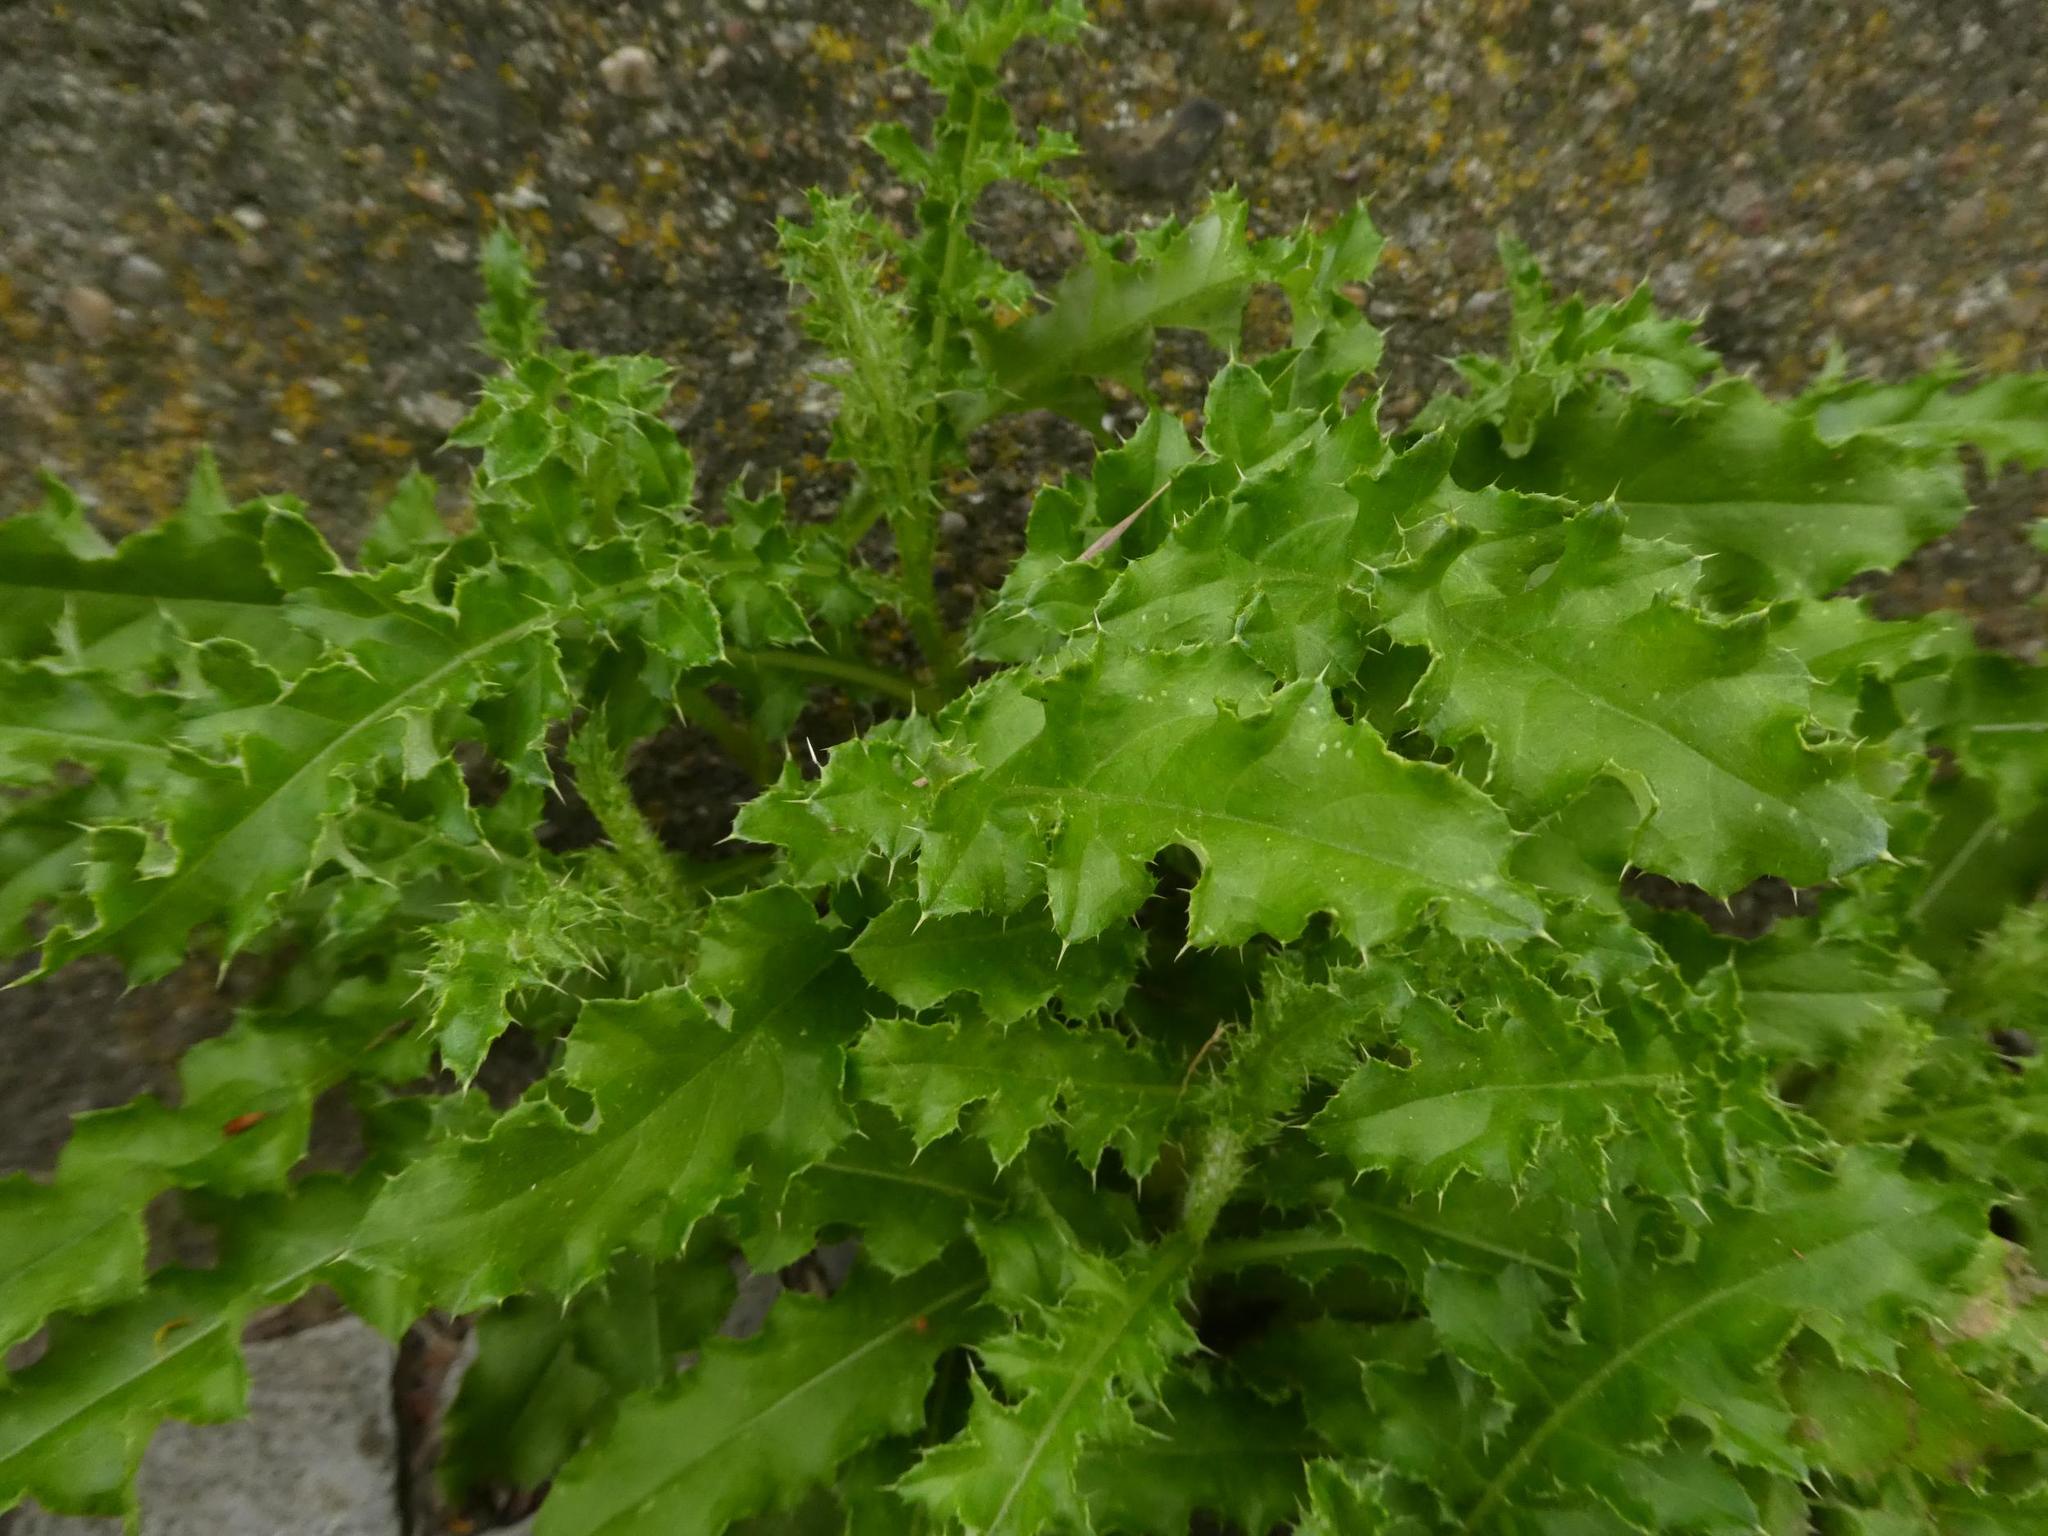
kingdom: Plantae
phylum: Tracheophyta
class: Magnoliopsida
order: Asterales
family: Asteraceae
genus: Cirsium
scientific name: Cirsium arvense
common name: Creeping thistle
